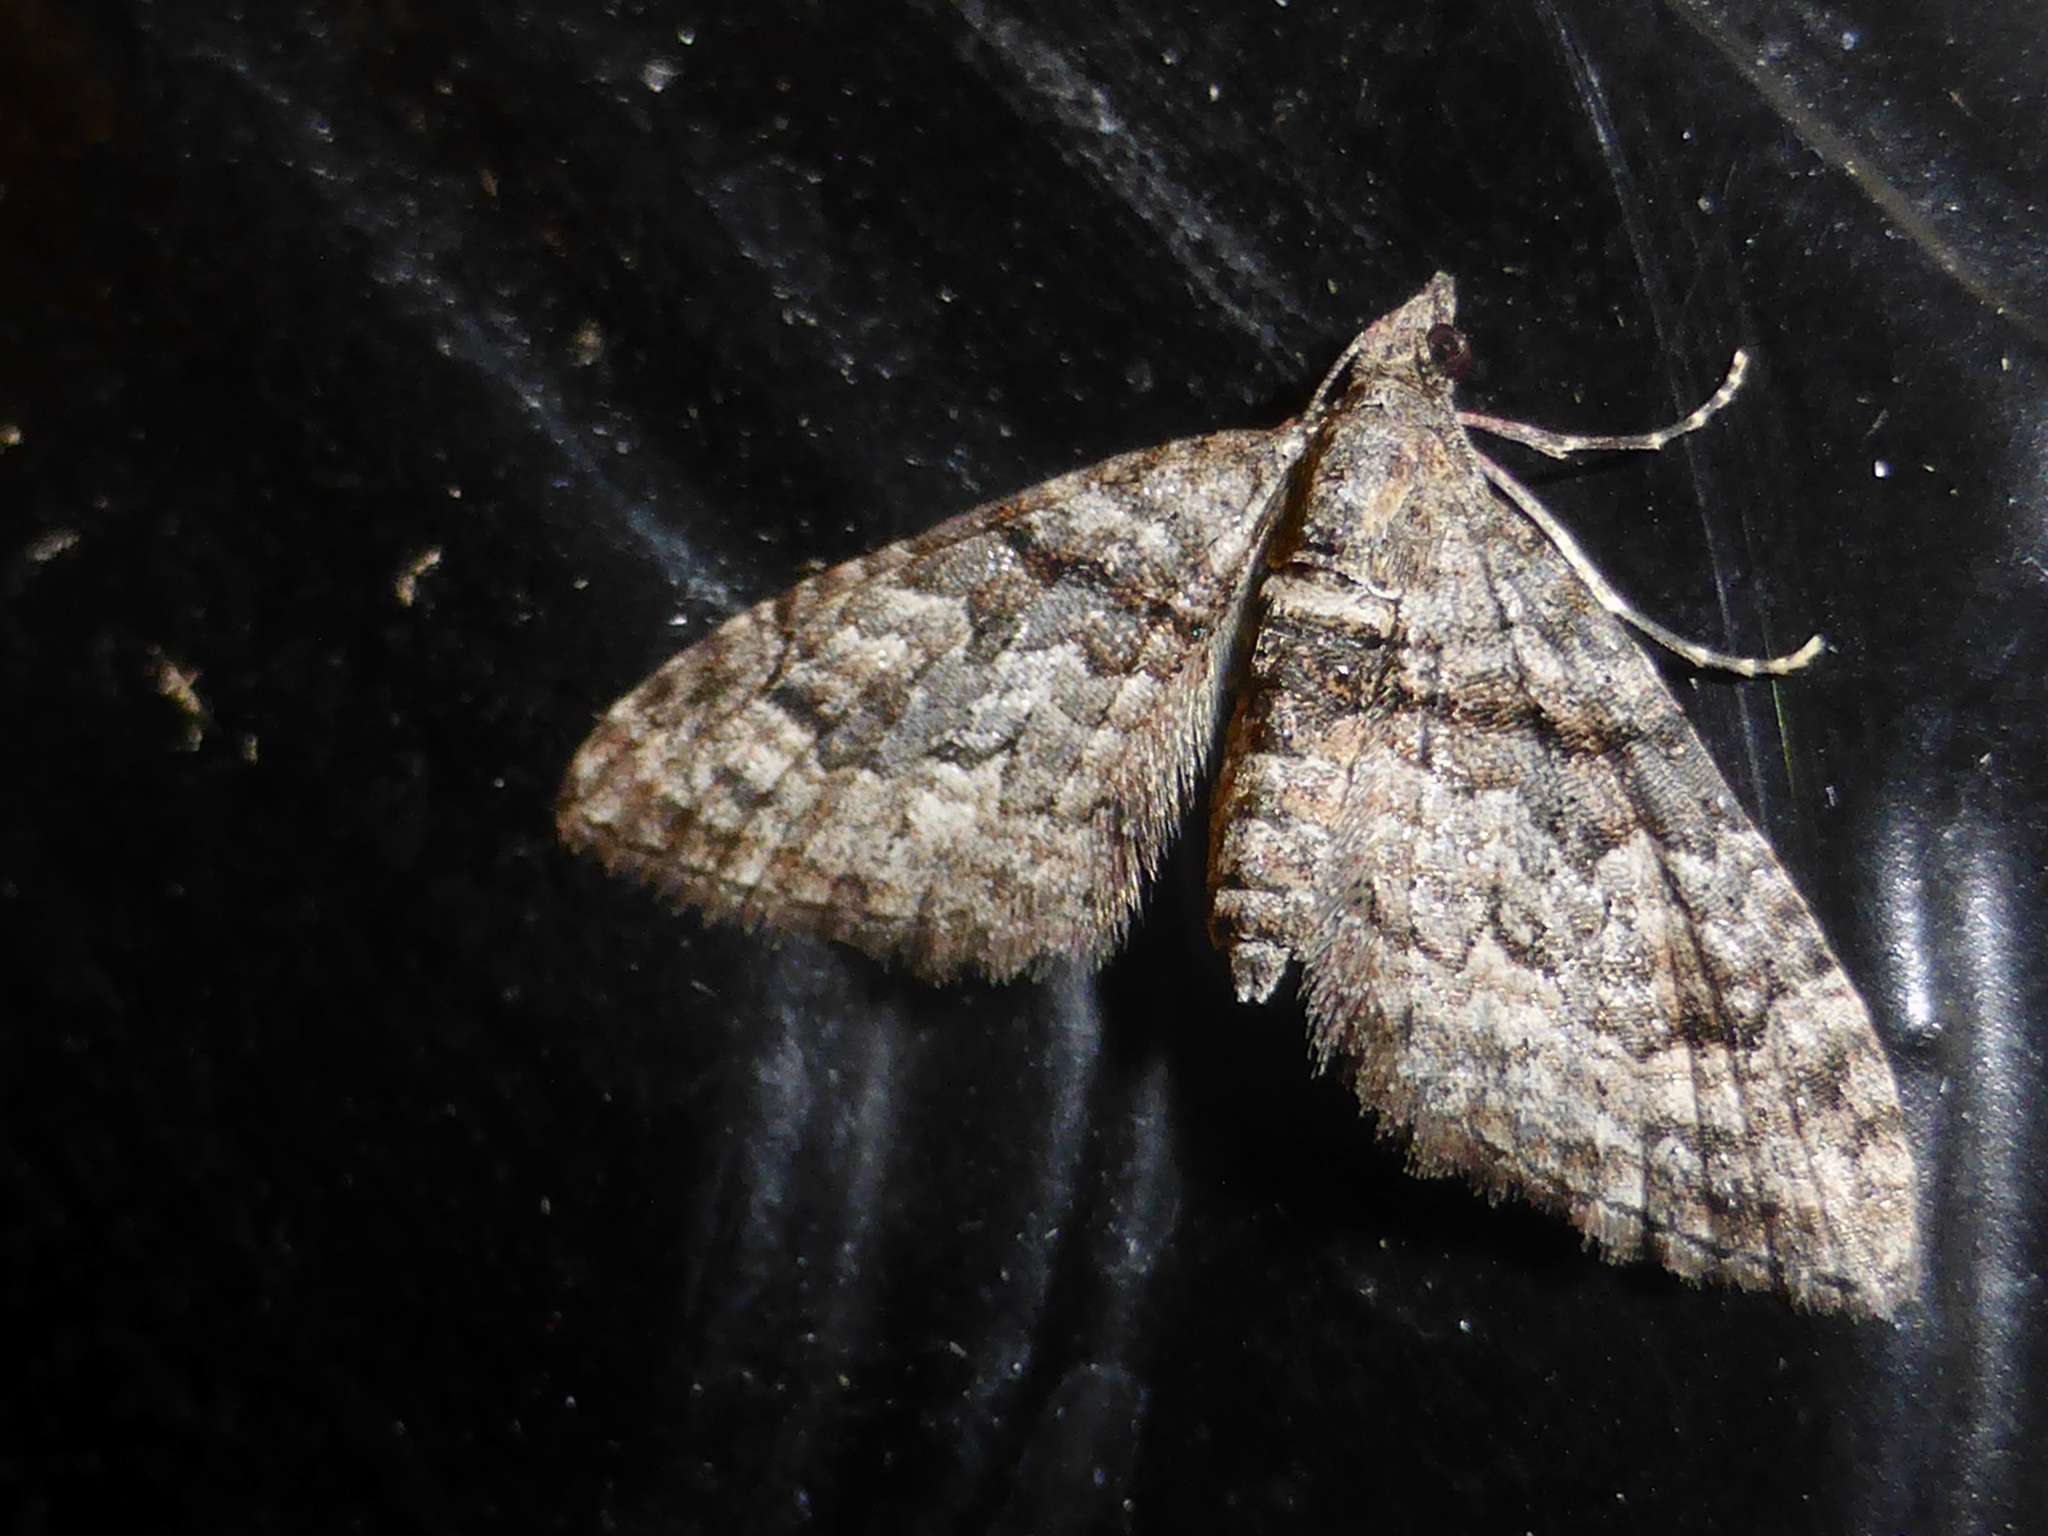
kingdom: Animalia
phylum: Arthropoda
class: Insecta
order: Lepidoptera
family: Geometridae
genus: Phrissogonus
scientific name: Phrissogonus laticostata
